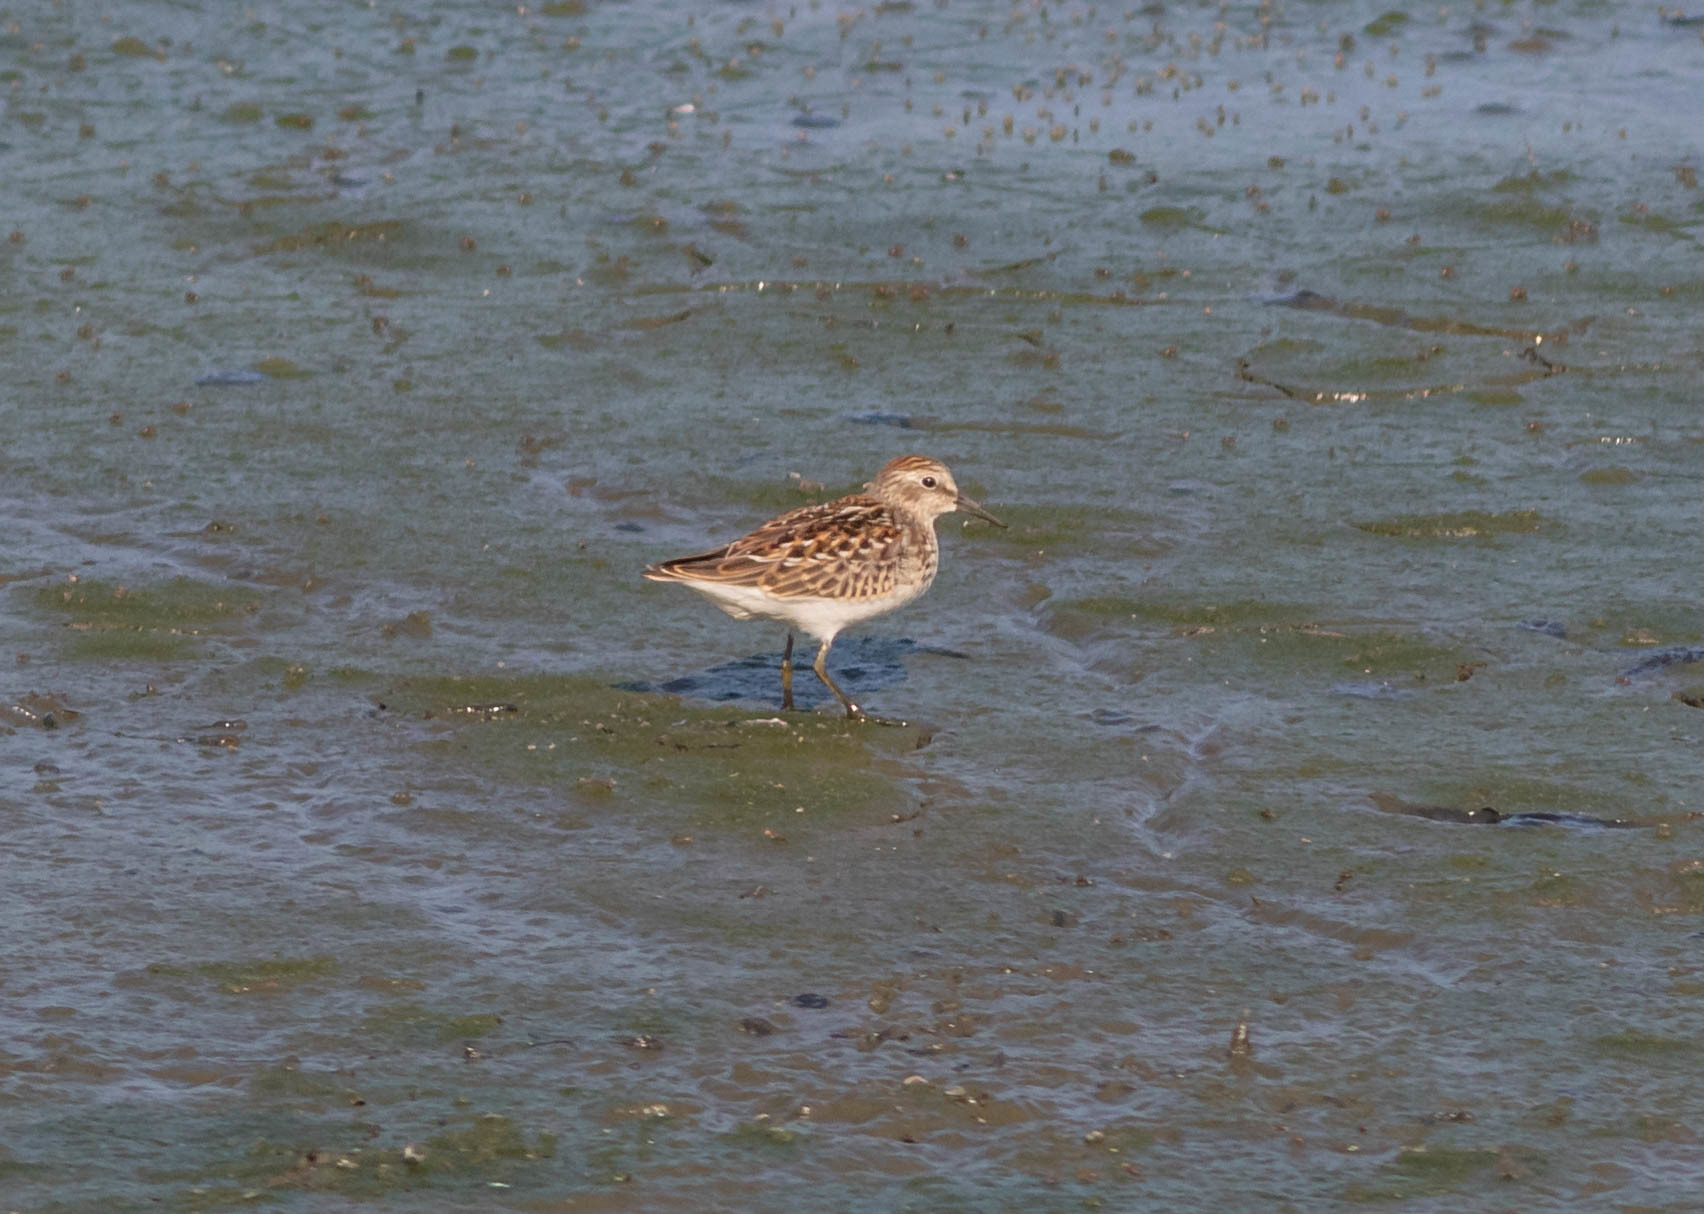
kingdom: Animalia
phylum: Chordata
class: Aves
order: Charadriiformes
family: Scolopacidae
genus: Calidris
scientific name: Calidris minutilla
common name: Least sandpiper
